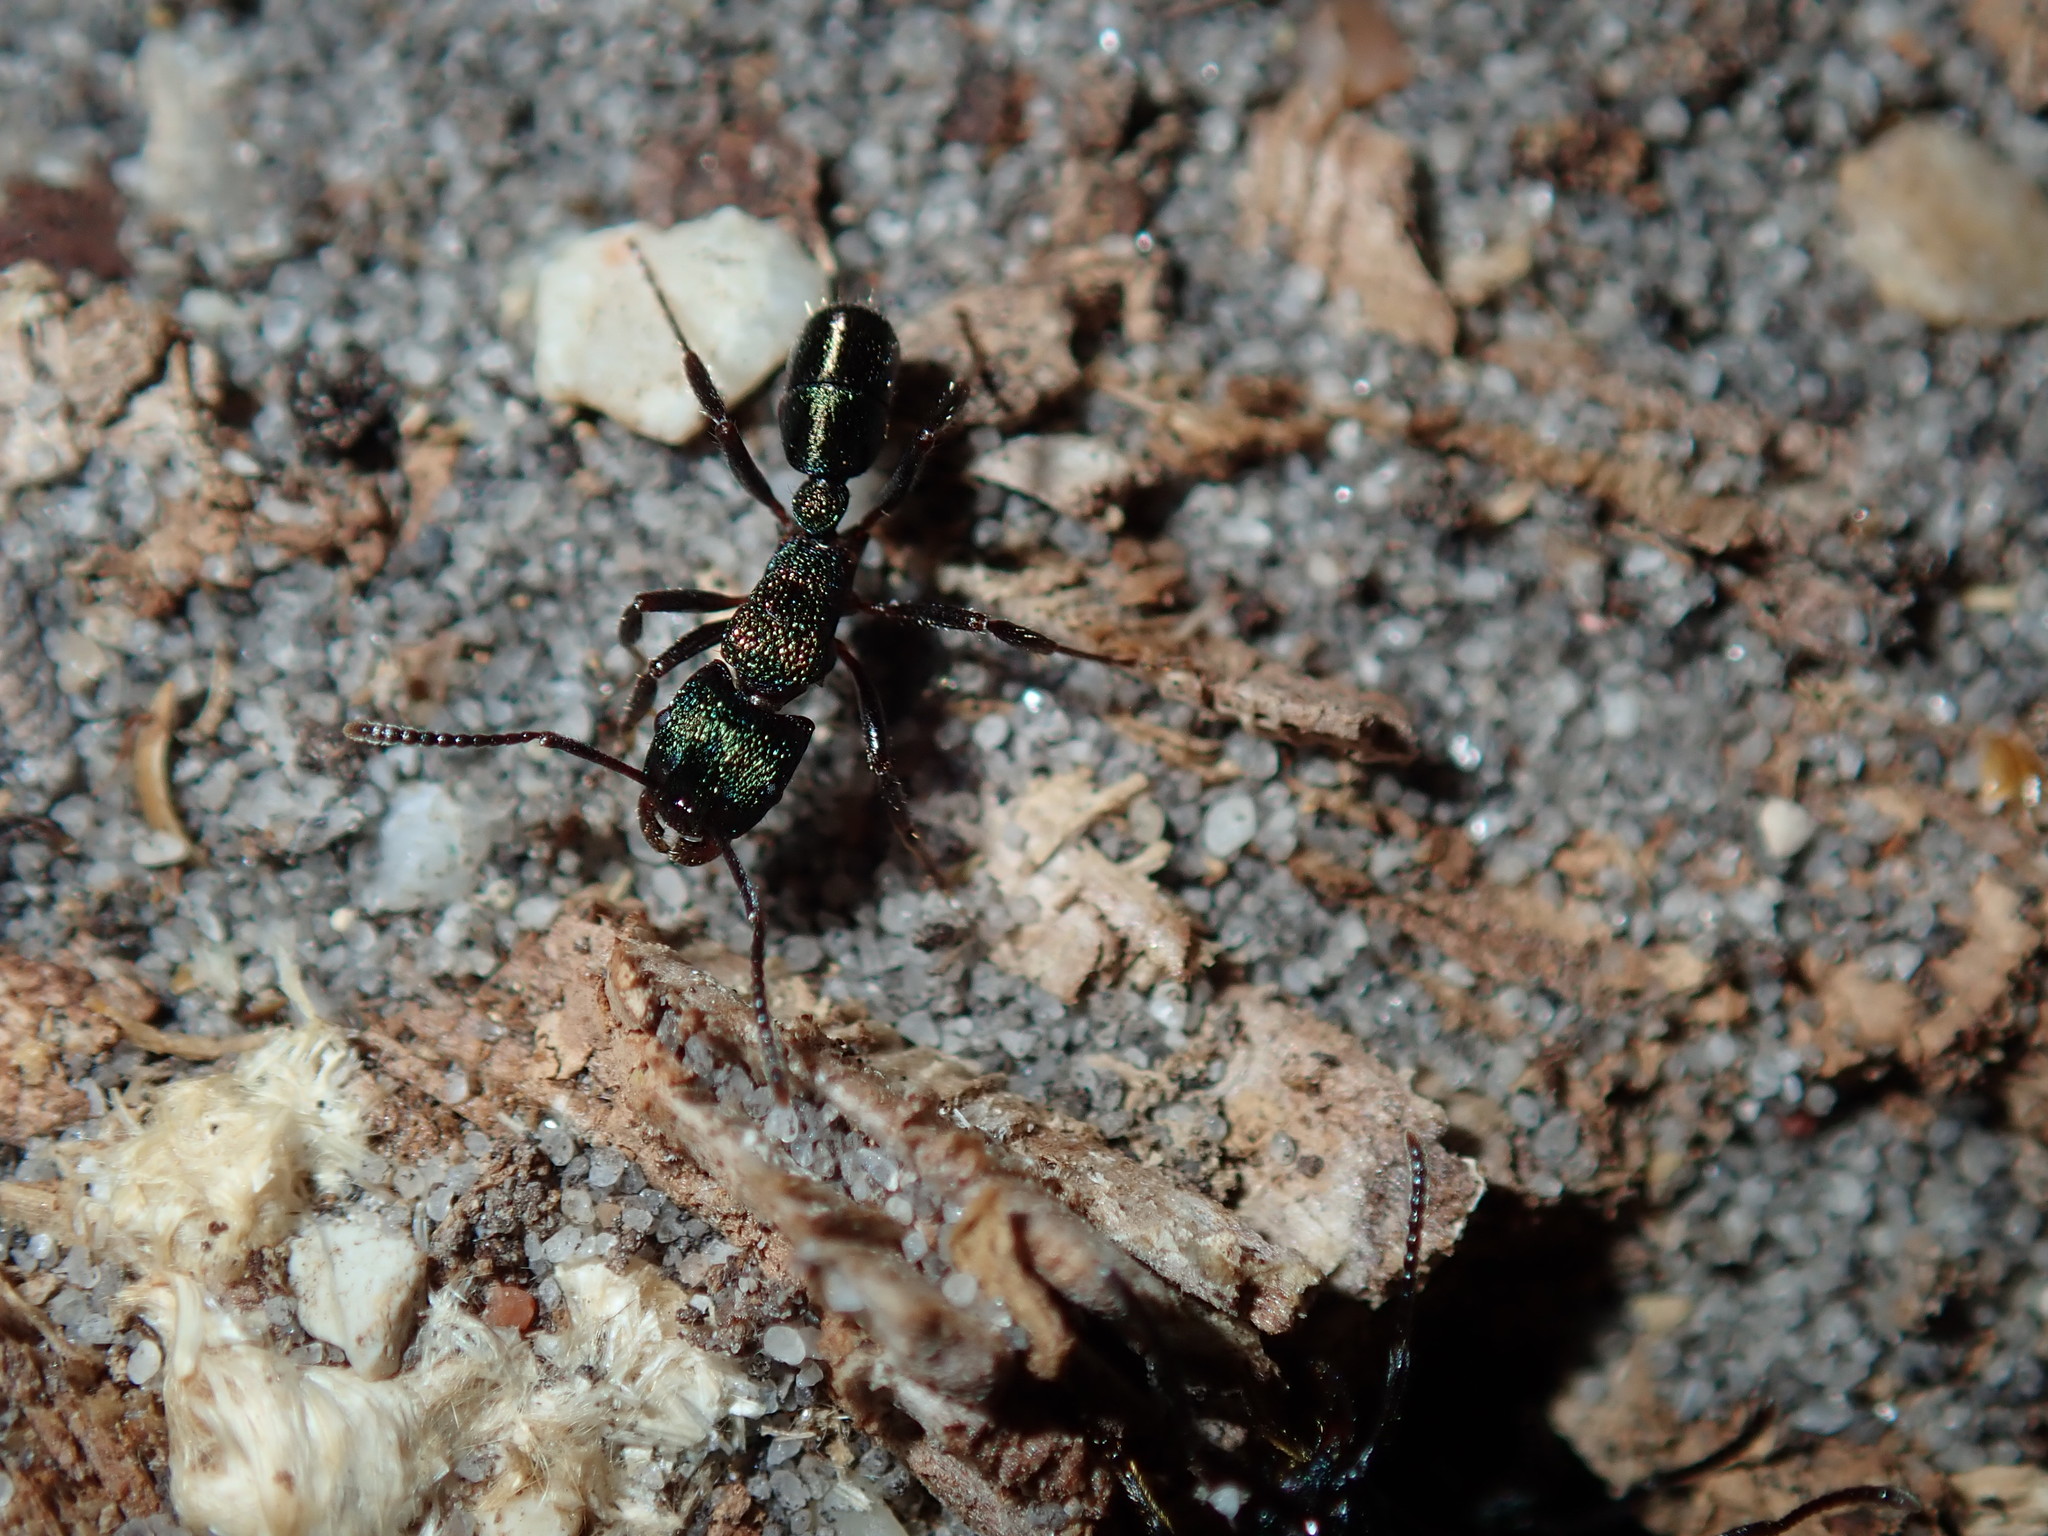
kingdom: Animalia
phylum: Arthropoda
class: Insecta
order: Hymenoptera
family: Formicidae
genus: Rhytidoponera
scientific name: Rhytidoponera metallica
